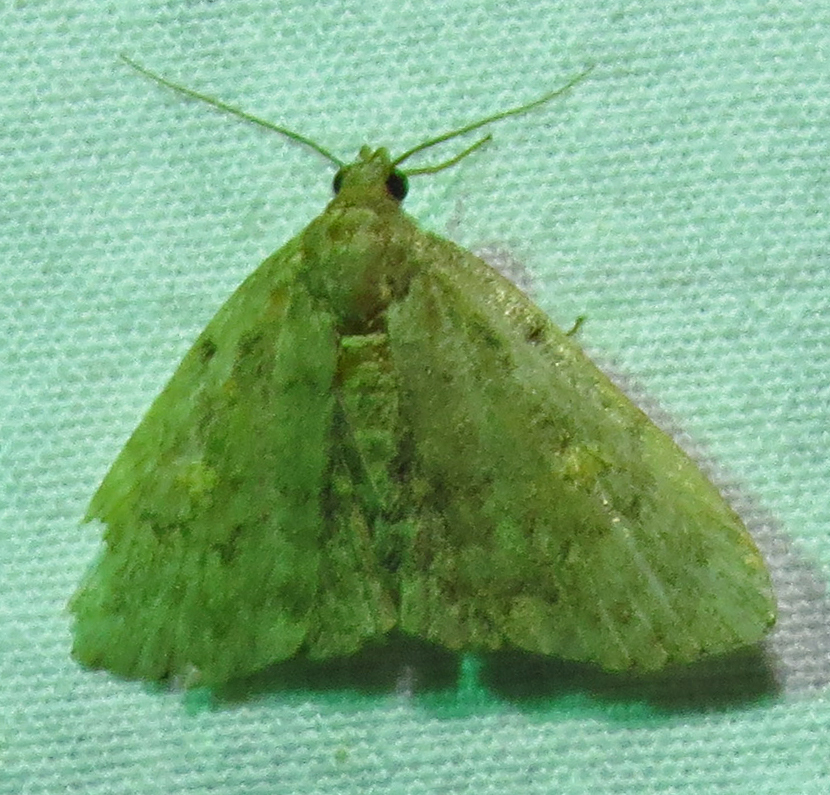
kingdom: Animalia
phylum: Arthropoda
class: Insecta
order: Lepidoptera
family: Erebidae
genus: Idia
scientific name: Idia aemula
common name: Common idia moth
